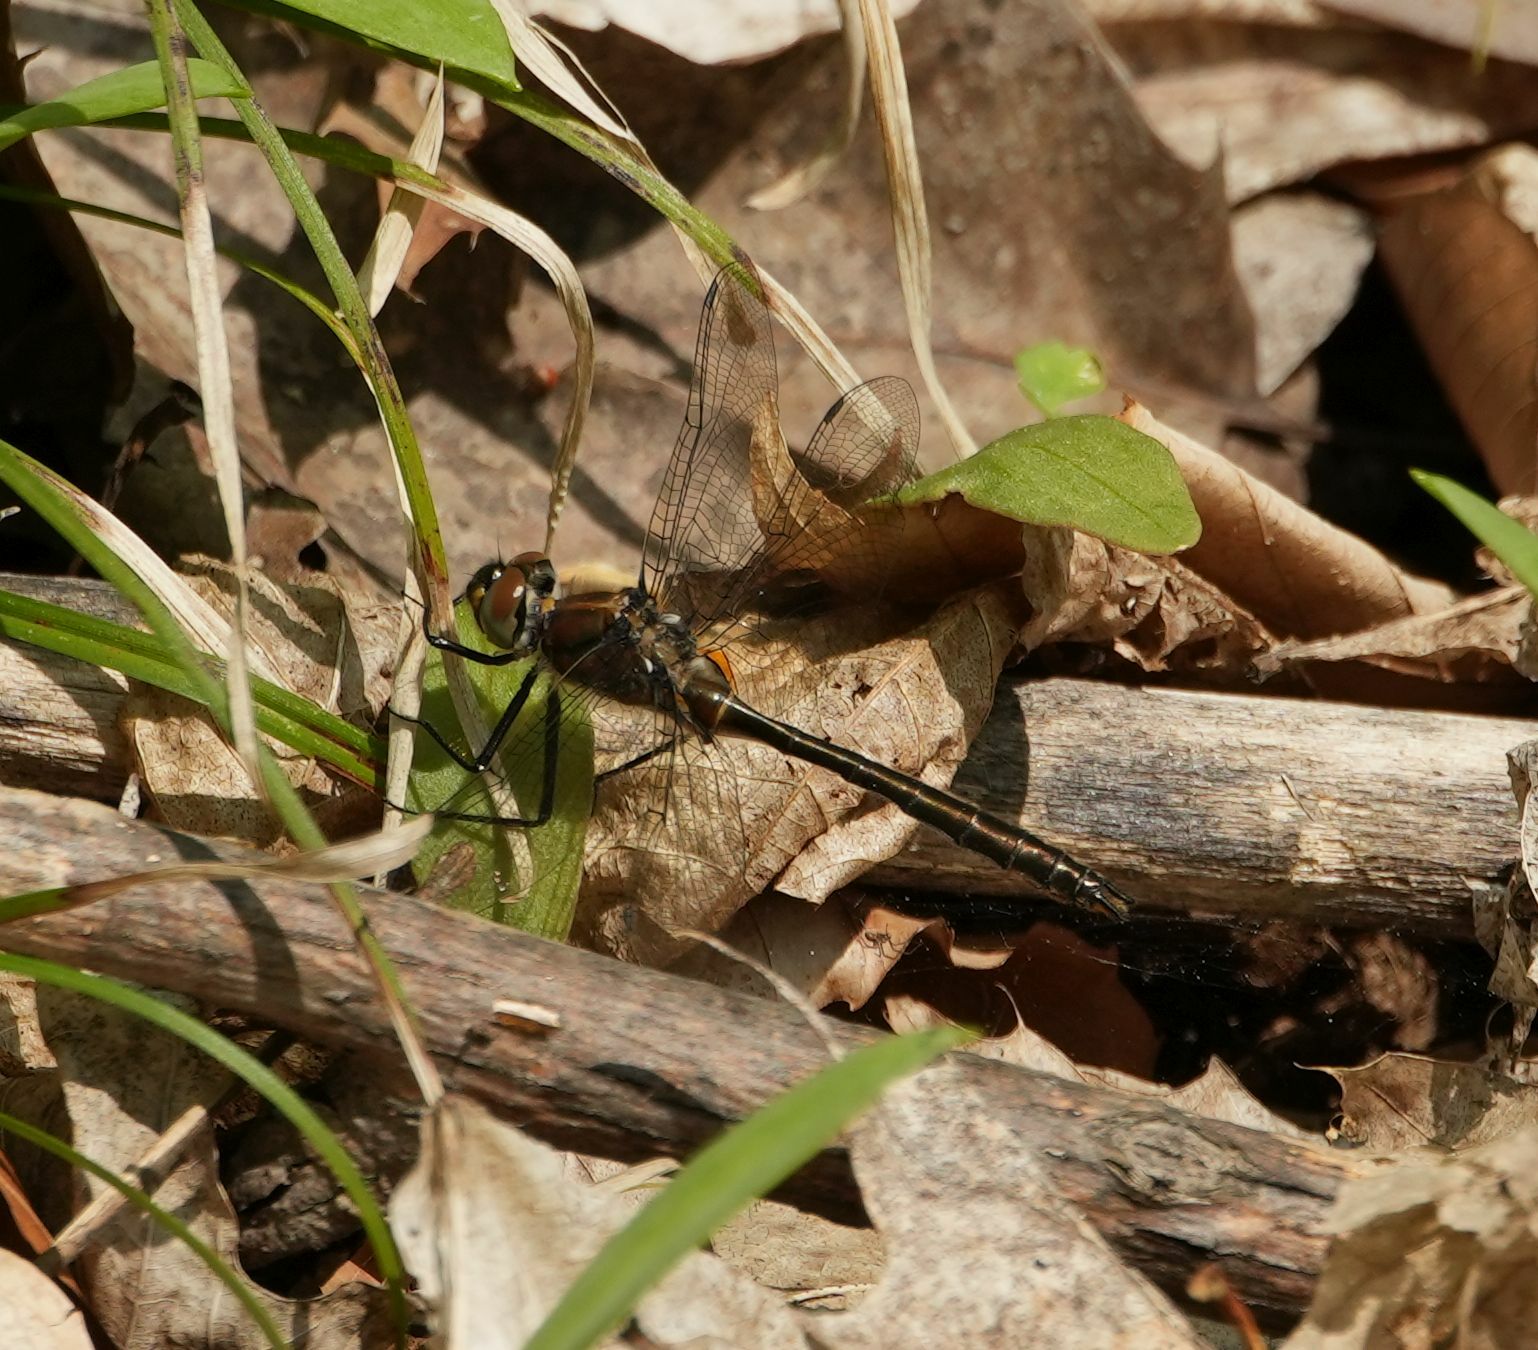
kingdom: Animalia
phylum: Arthropoda
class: Insecta
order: Odonata
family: Corduliidae
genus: Cordulia
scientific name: Cordulia shurtleffii
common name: American emerald
